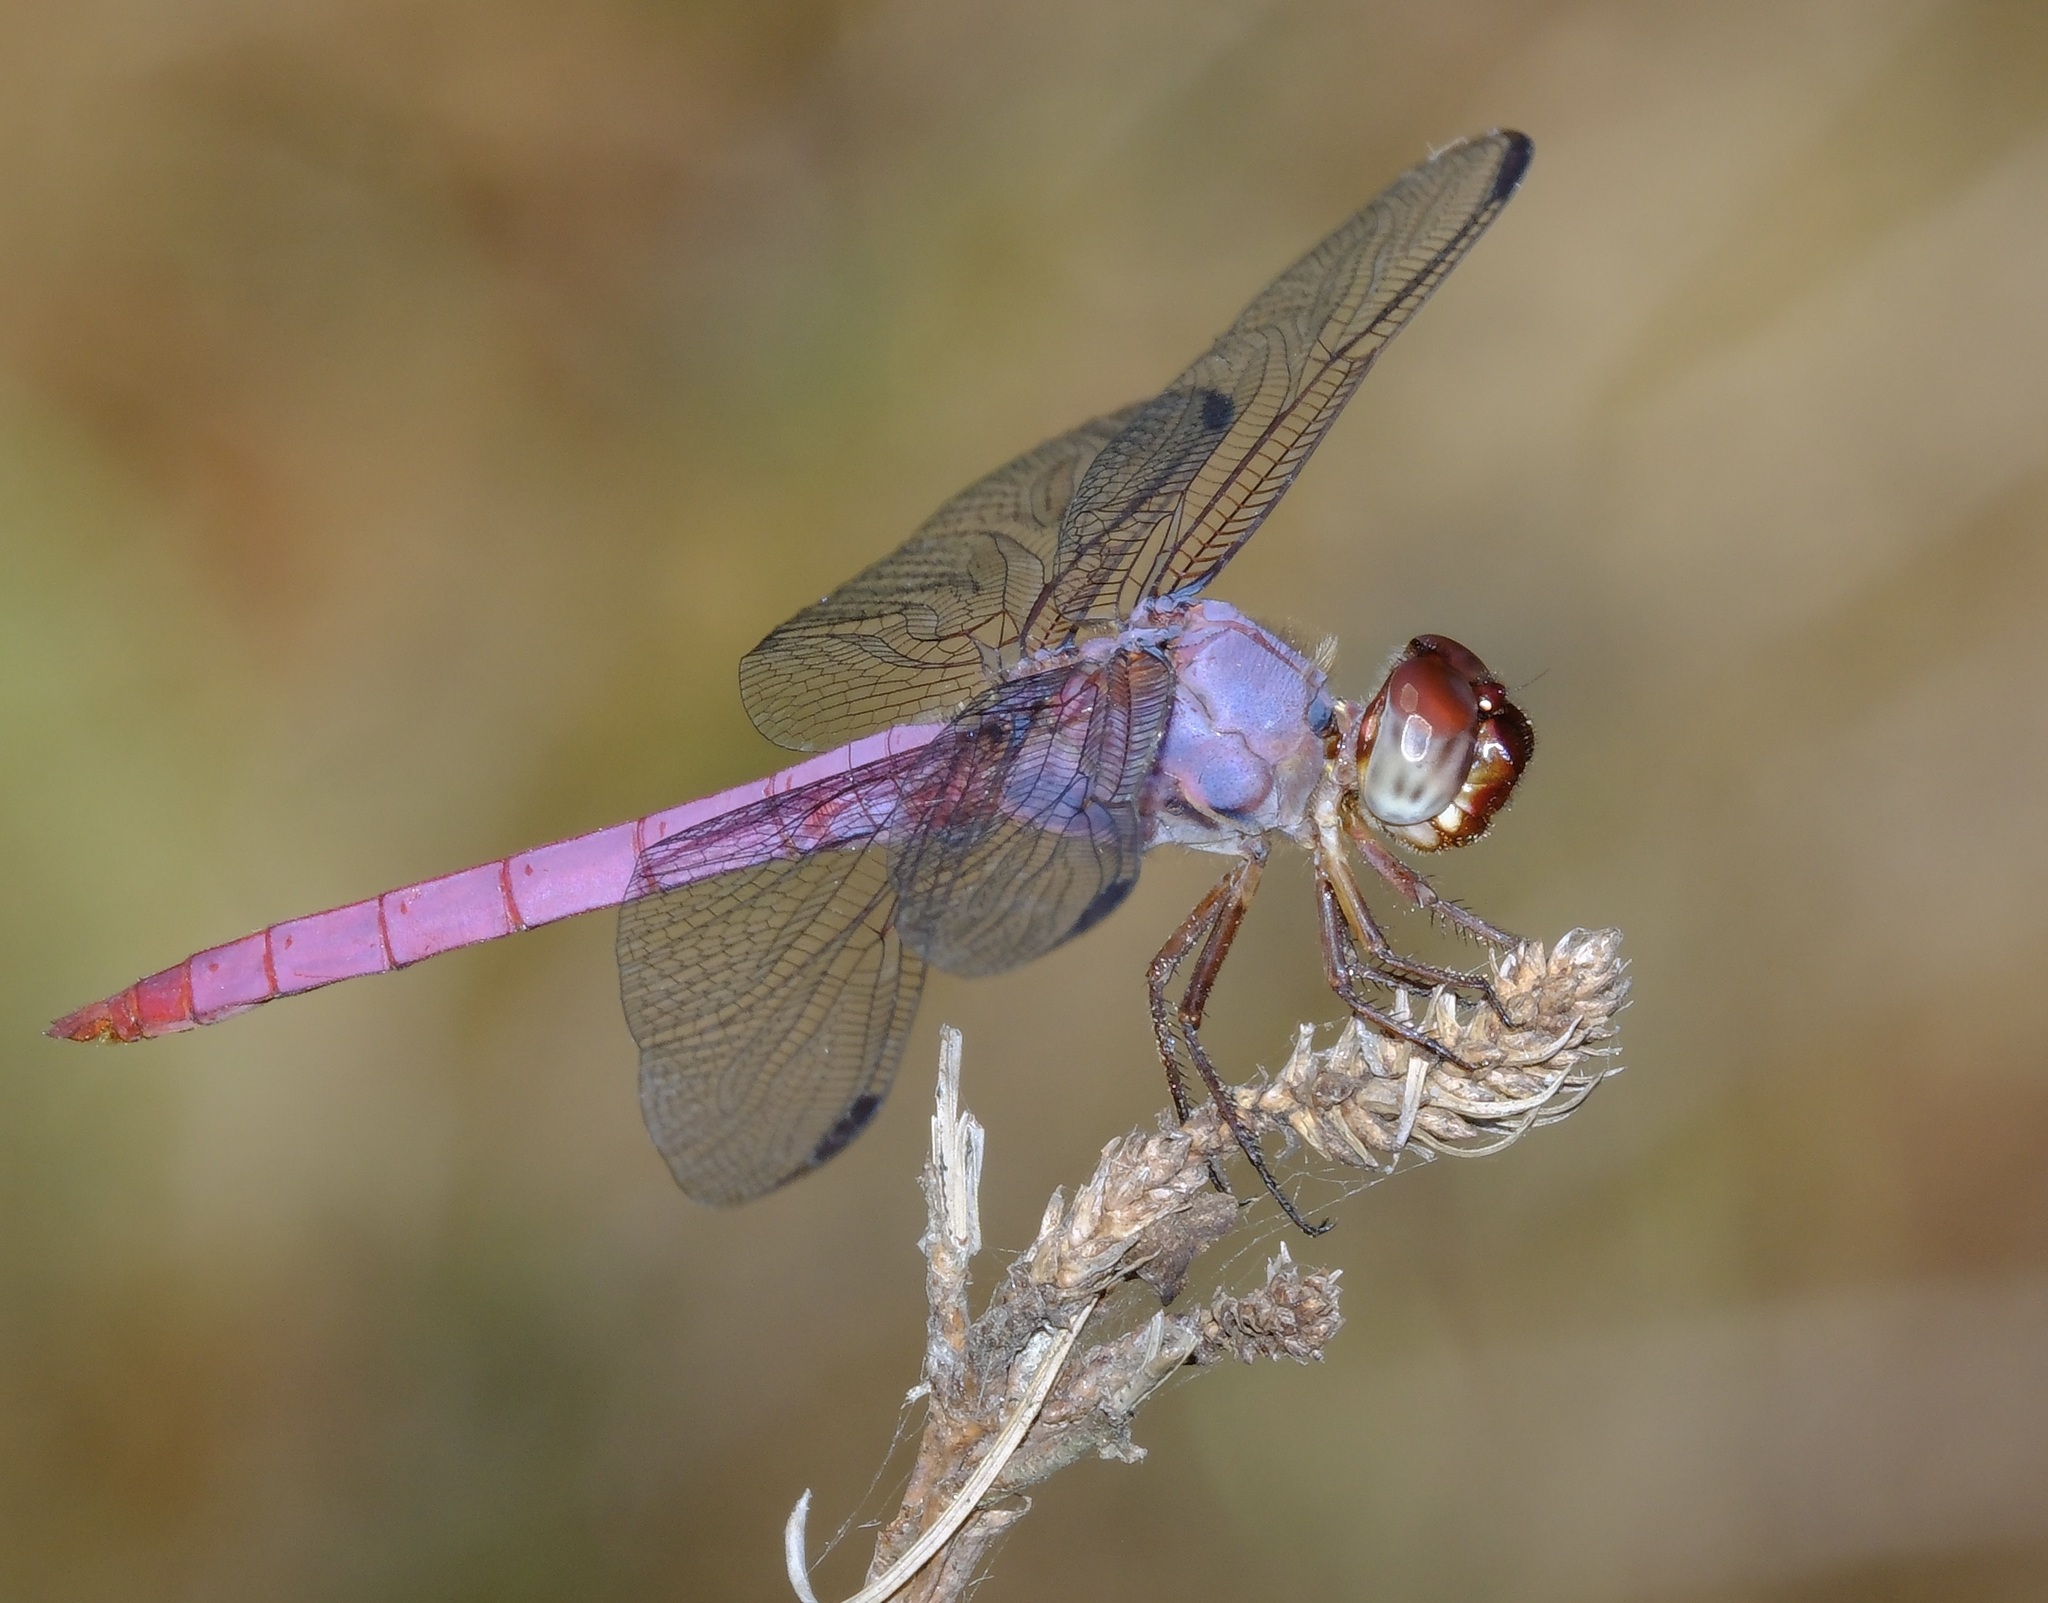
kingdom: Animalia
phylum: Arthropoda
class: Insecta
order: Odonata
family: Libellulidae
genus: Orthemis
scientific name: Orthemis ferruginea
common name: Roseate skimmer
